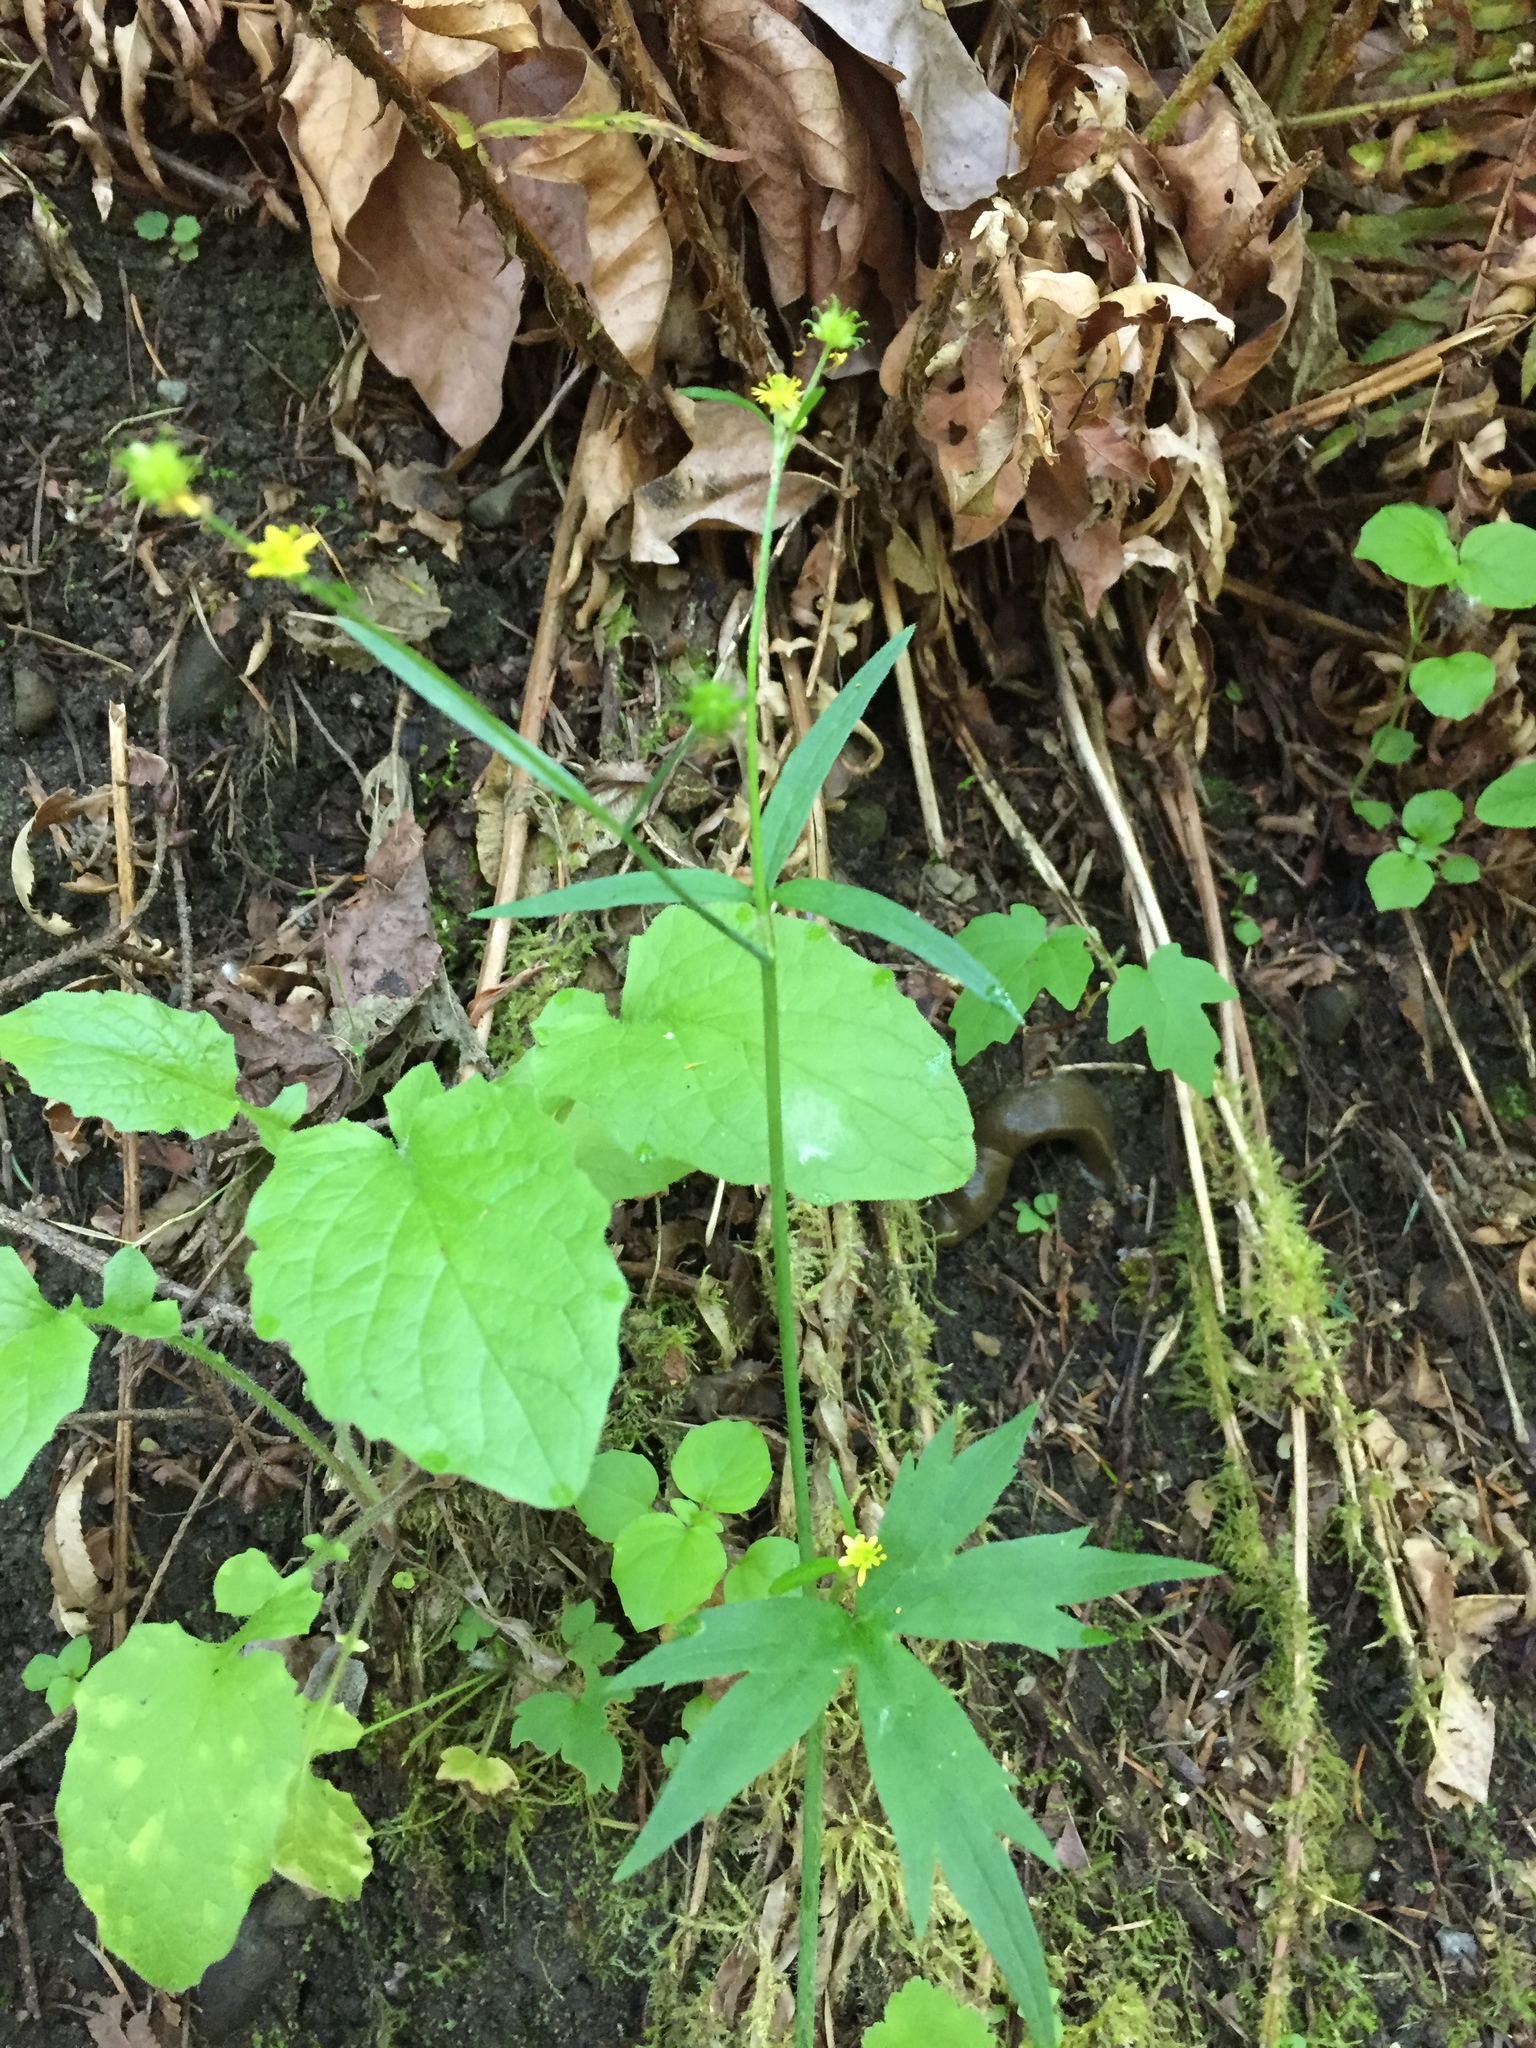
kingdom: Plantae
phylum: Tracheophyta
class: Magnoliopsida
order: Ranunculales
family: Ranunculaceae
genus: Ranunculus
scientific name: Ranunculus uncinatus
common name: Little buttercup
